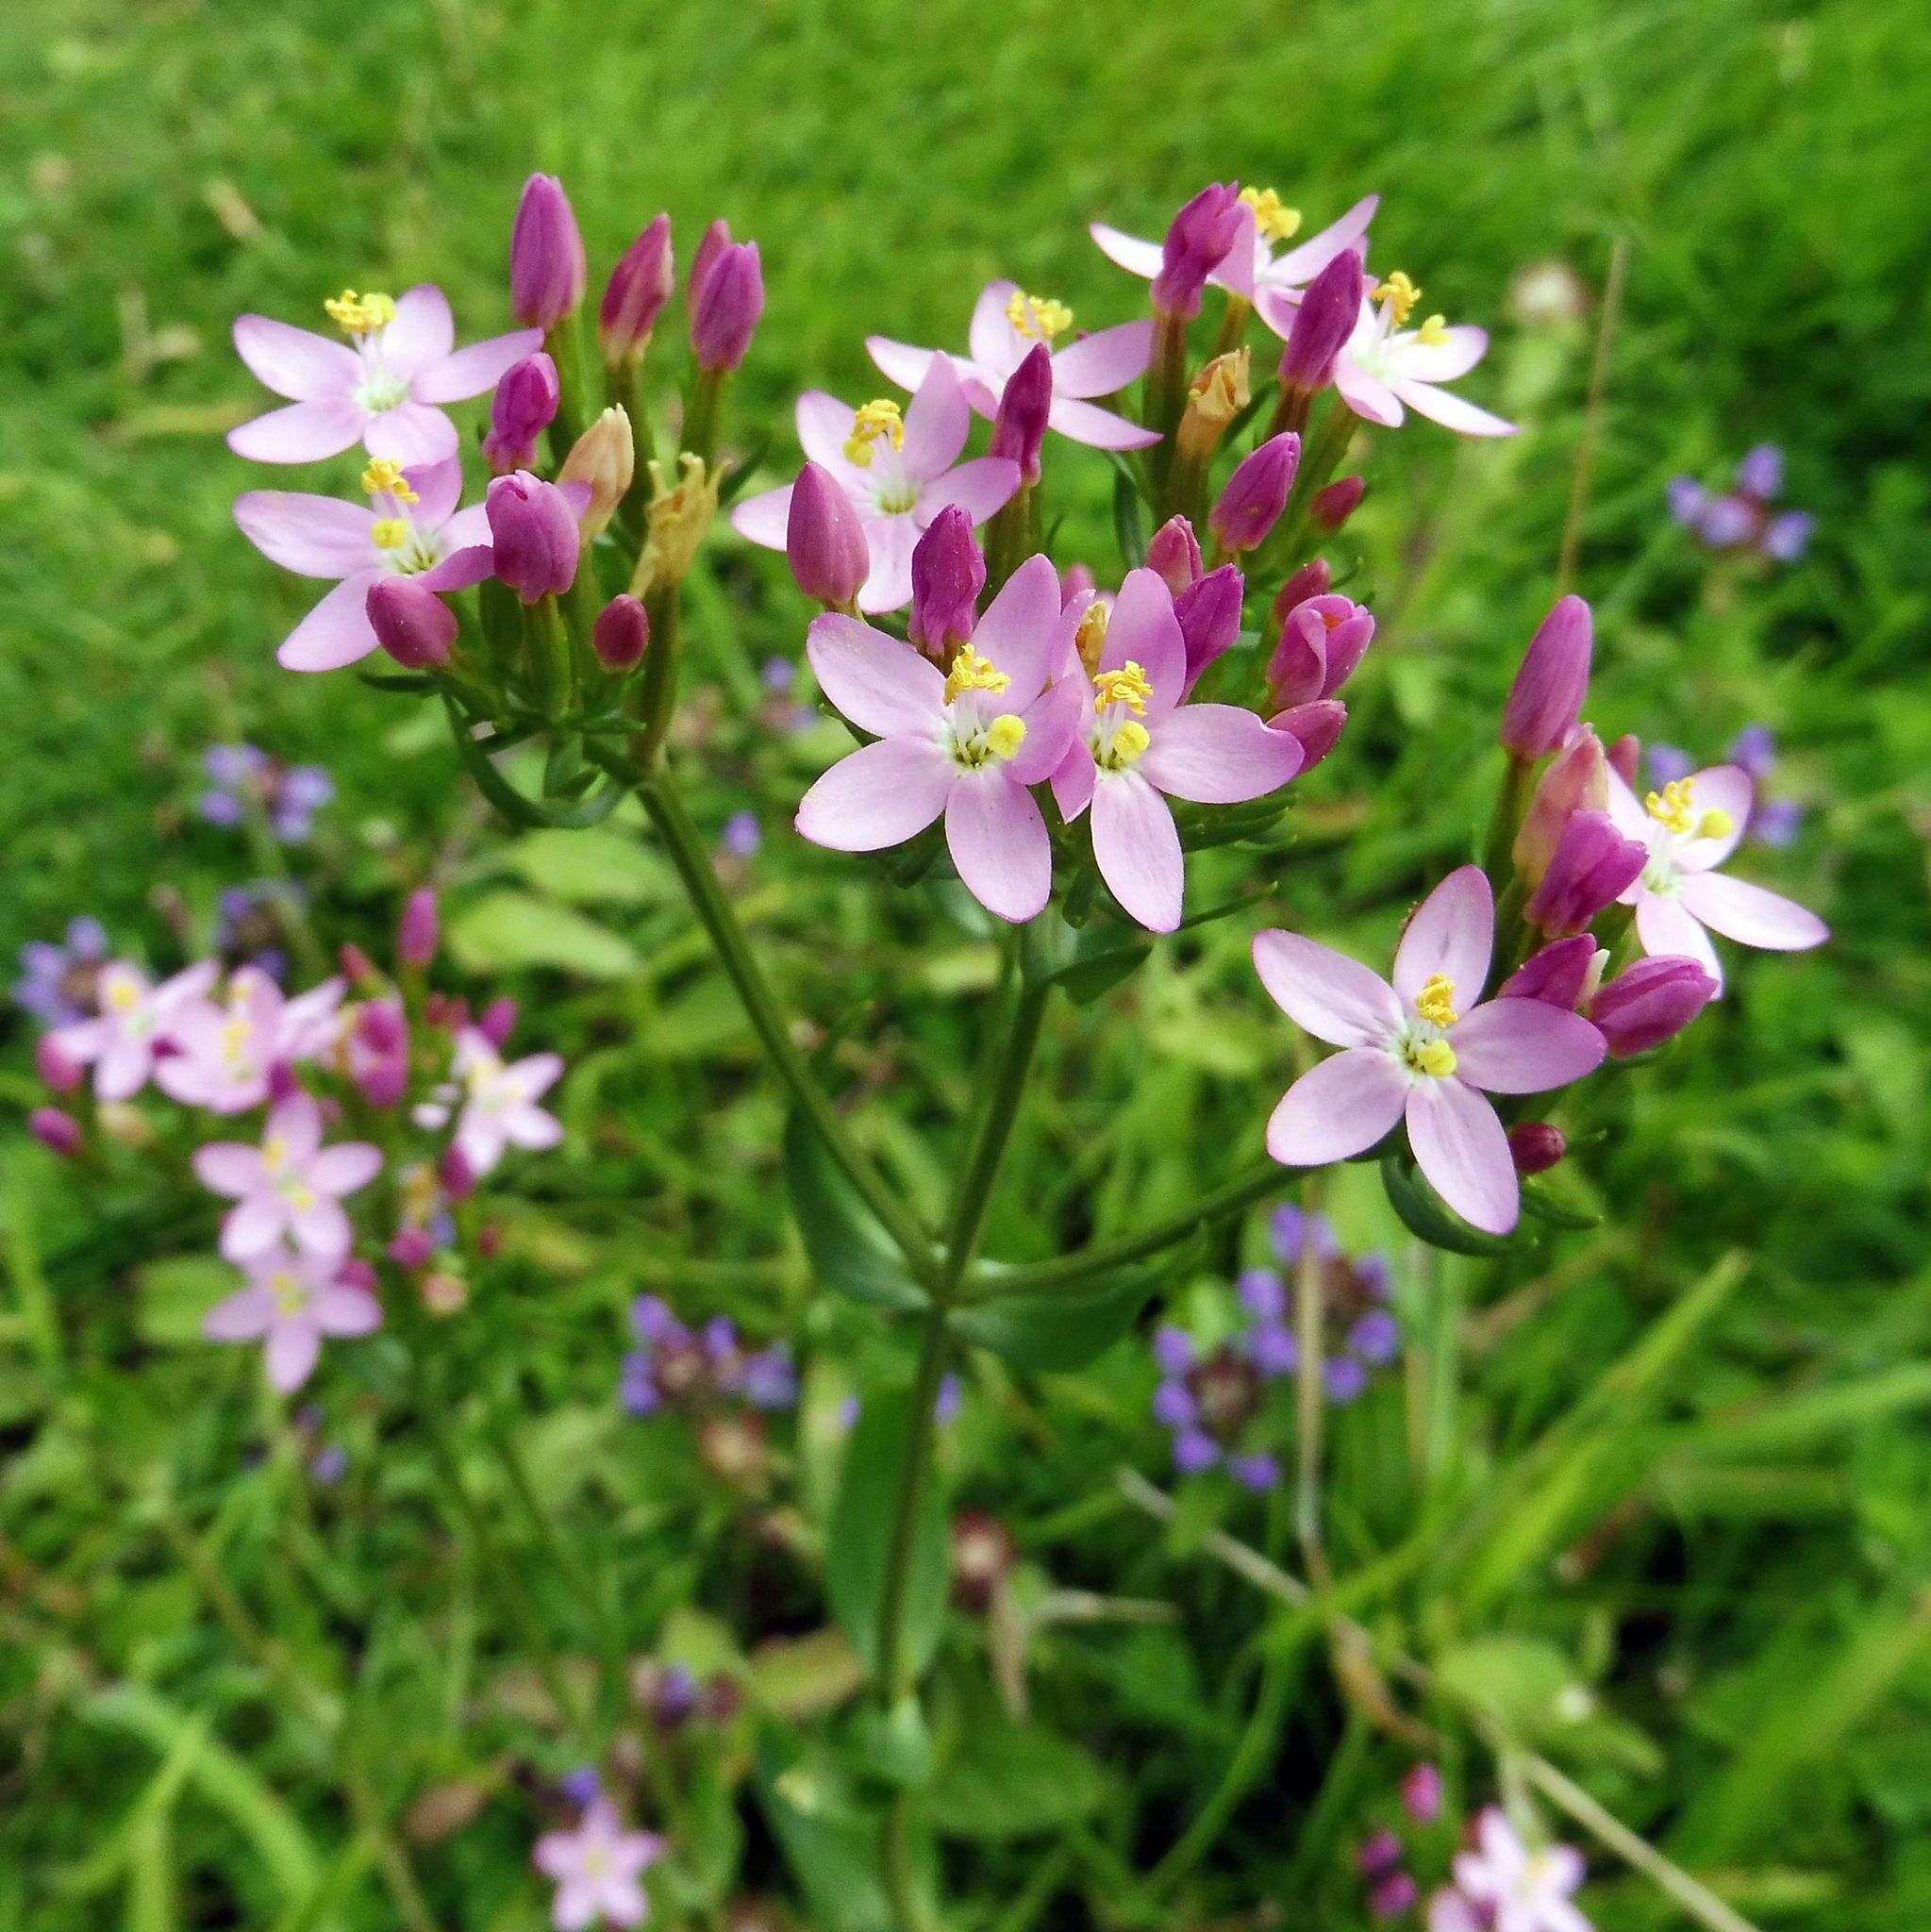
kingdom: Plantae
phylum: Tracheophyta
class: Magnoliopsida
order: Gentianales
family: Gentianaceae
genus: Centaurium
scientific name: Centaurium erythraea
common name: Common centaury
